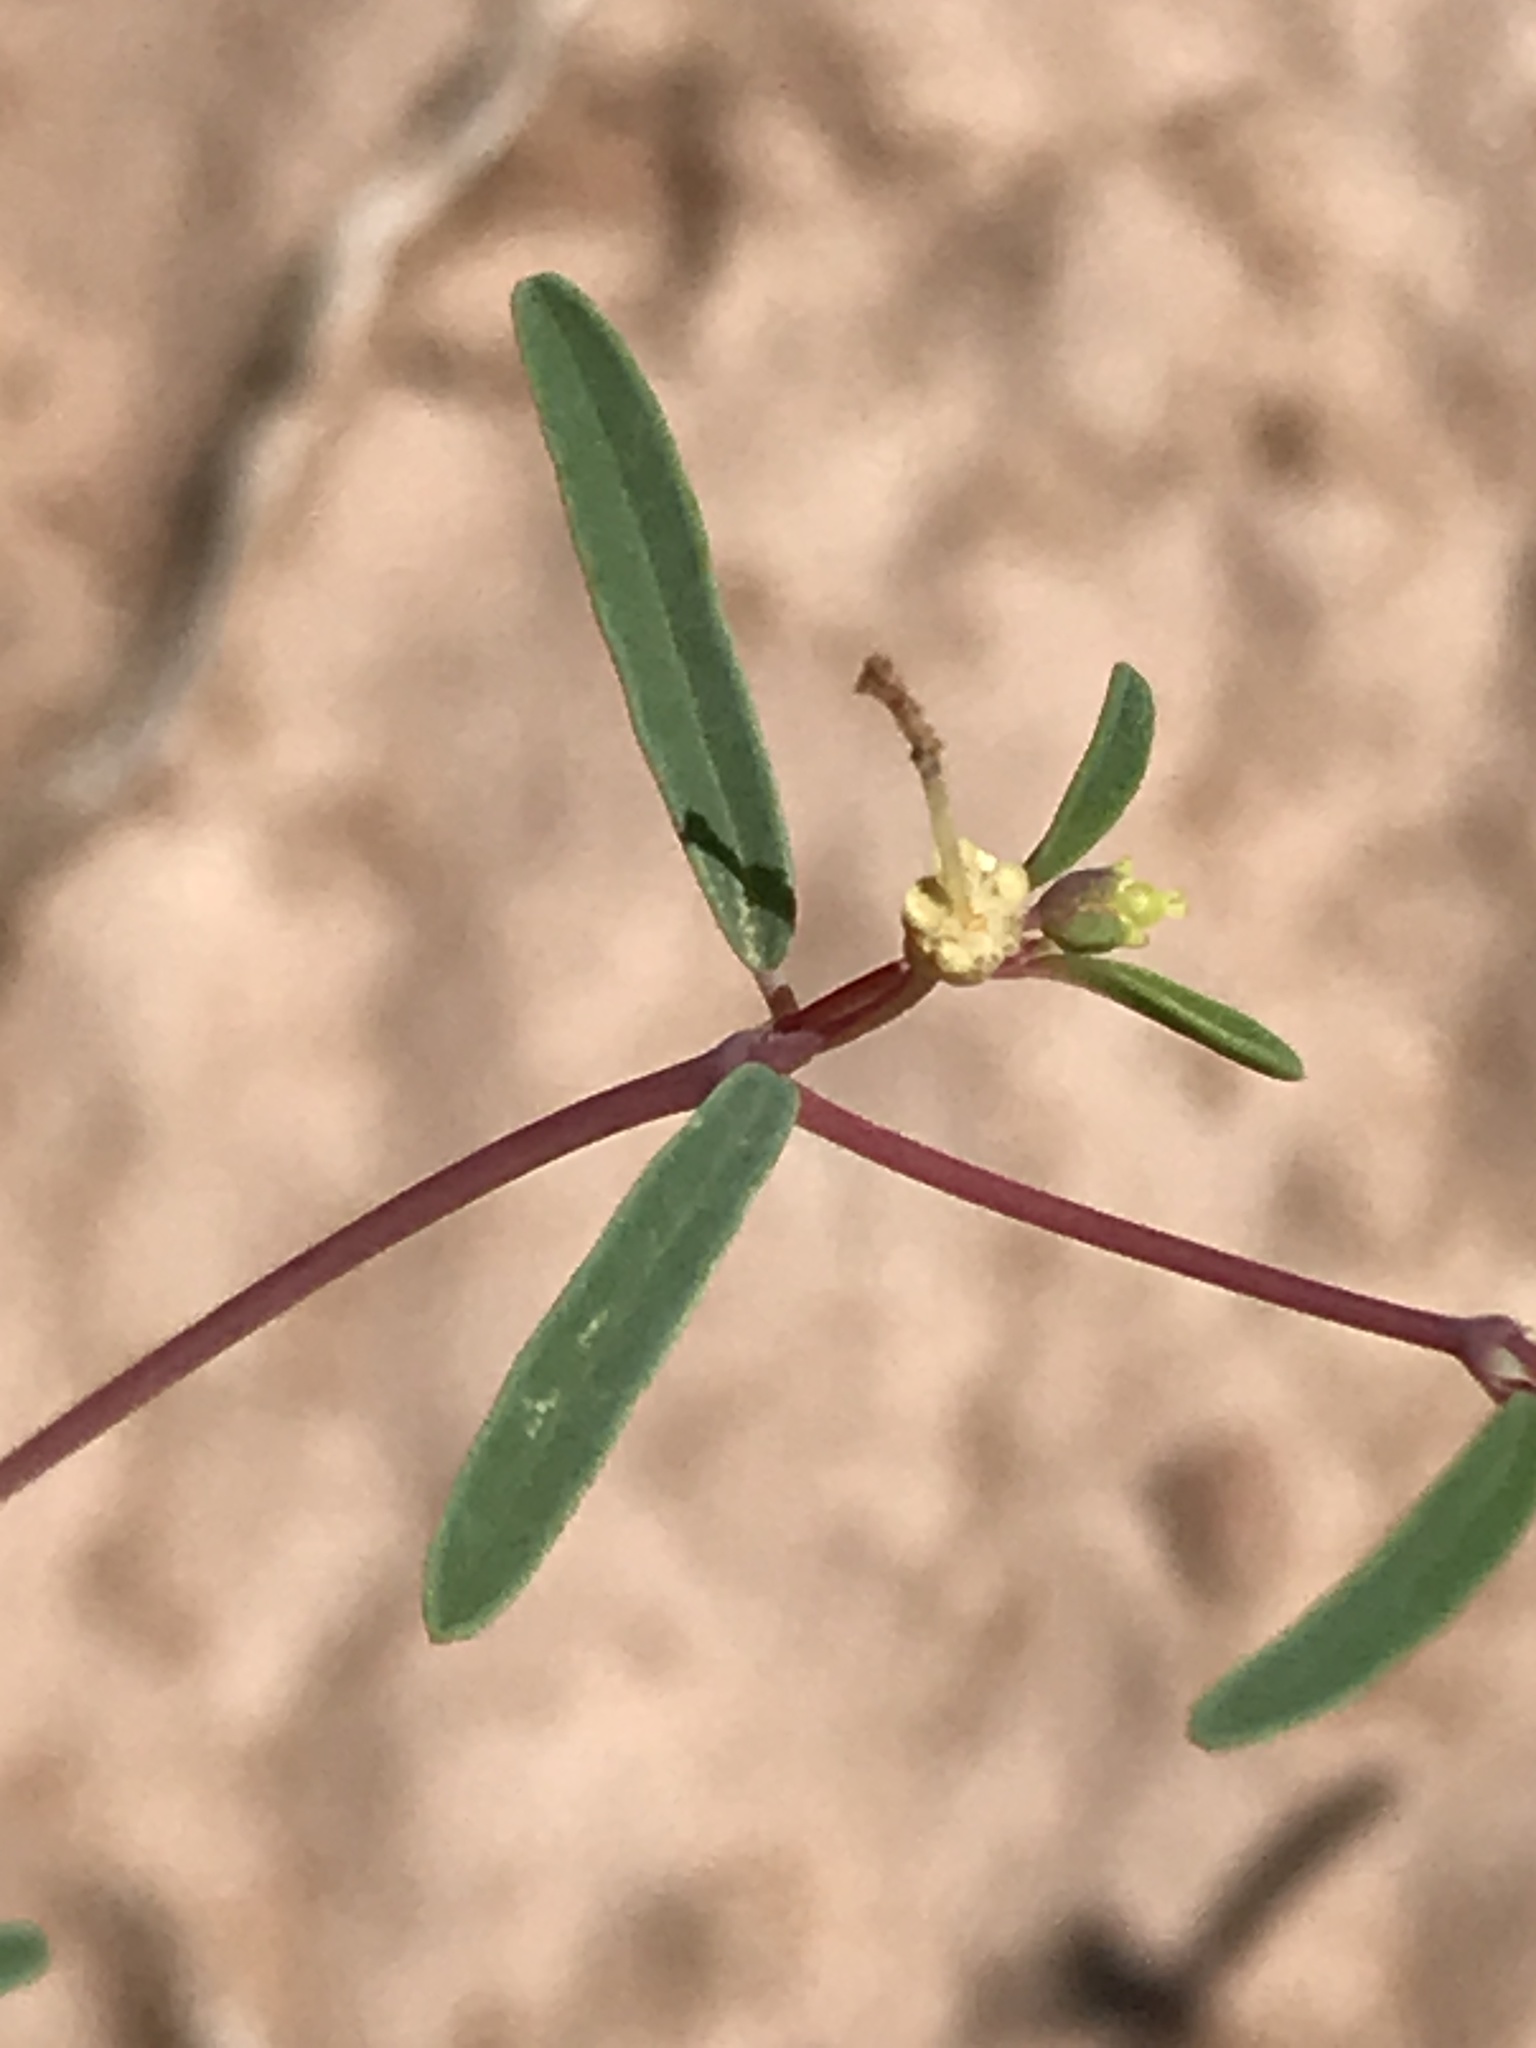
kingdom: Plantae
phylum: Tracheophyta
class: Magnoliopsida
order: Malpighiales
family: Euphorbiaceae
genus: Euphorbia
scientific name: Euphorbia parryi
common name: Dune spurge
